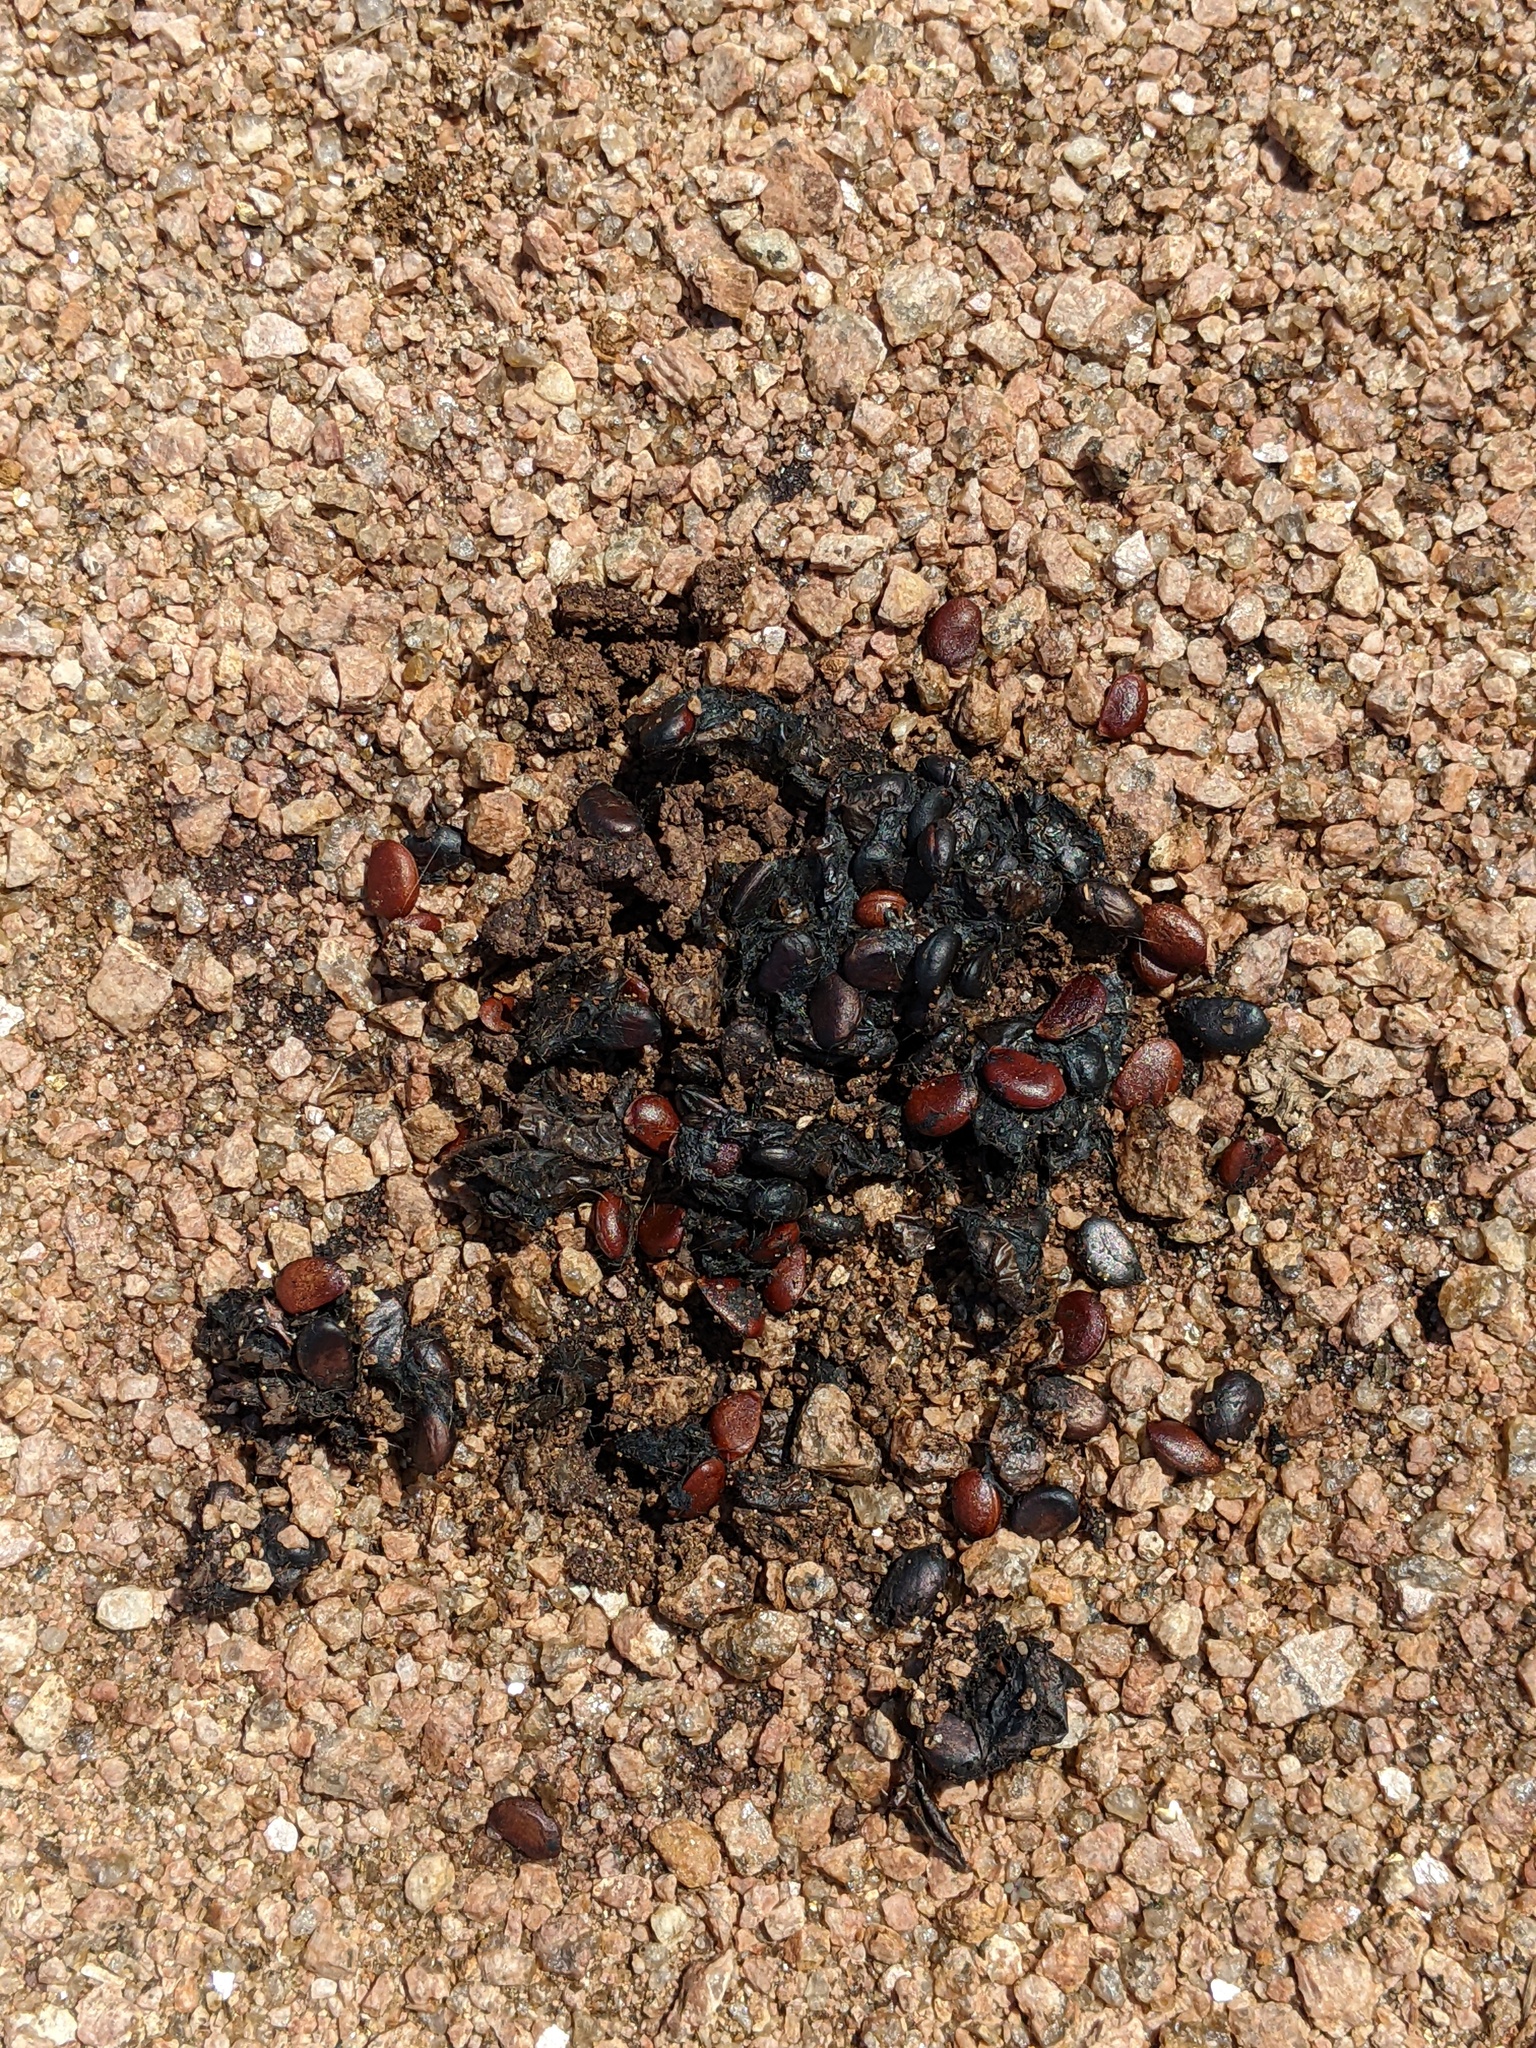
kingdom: Plantae
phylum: Tracheophyta
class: Magnoliopsida
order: Ericales
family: Ebenaceae
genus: Diospyros
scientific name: Diospyros texana
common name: Texas persimmon
